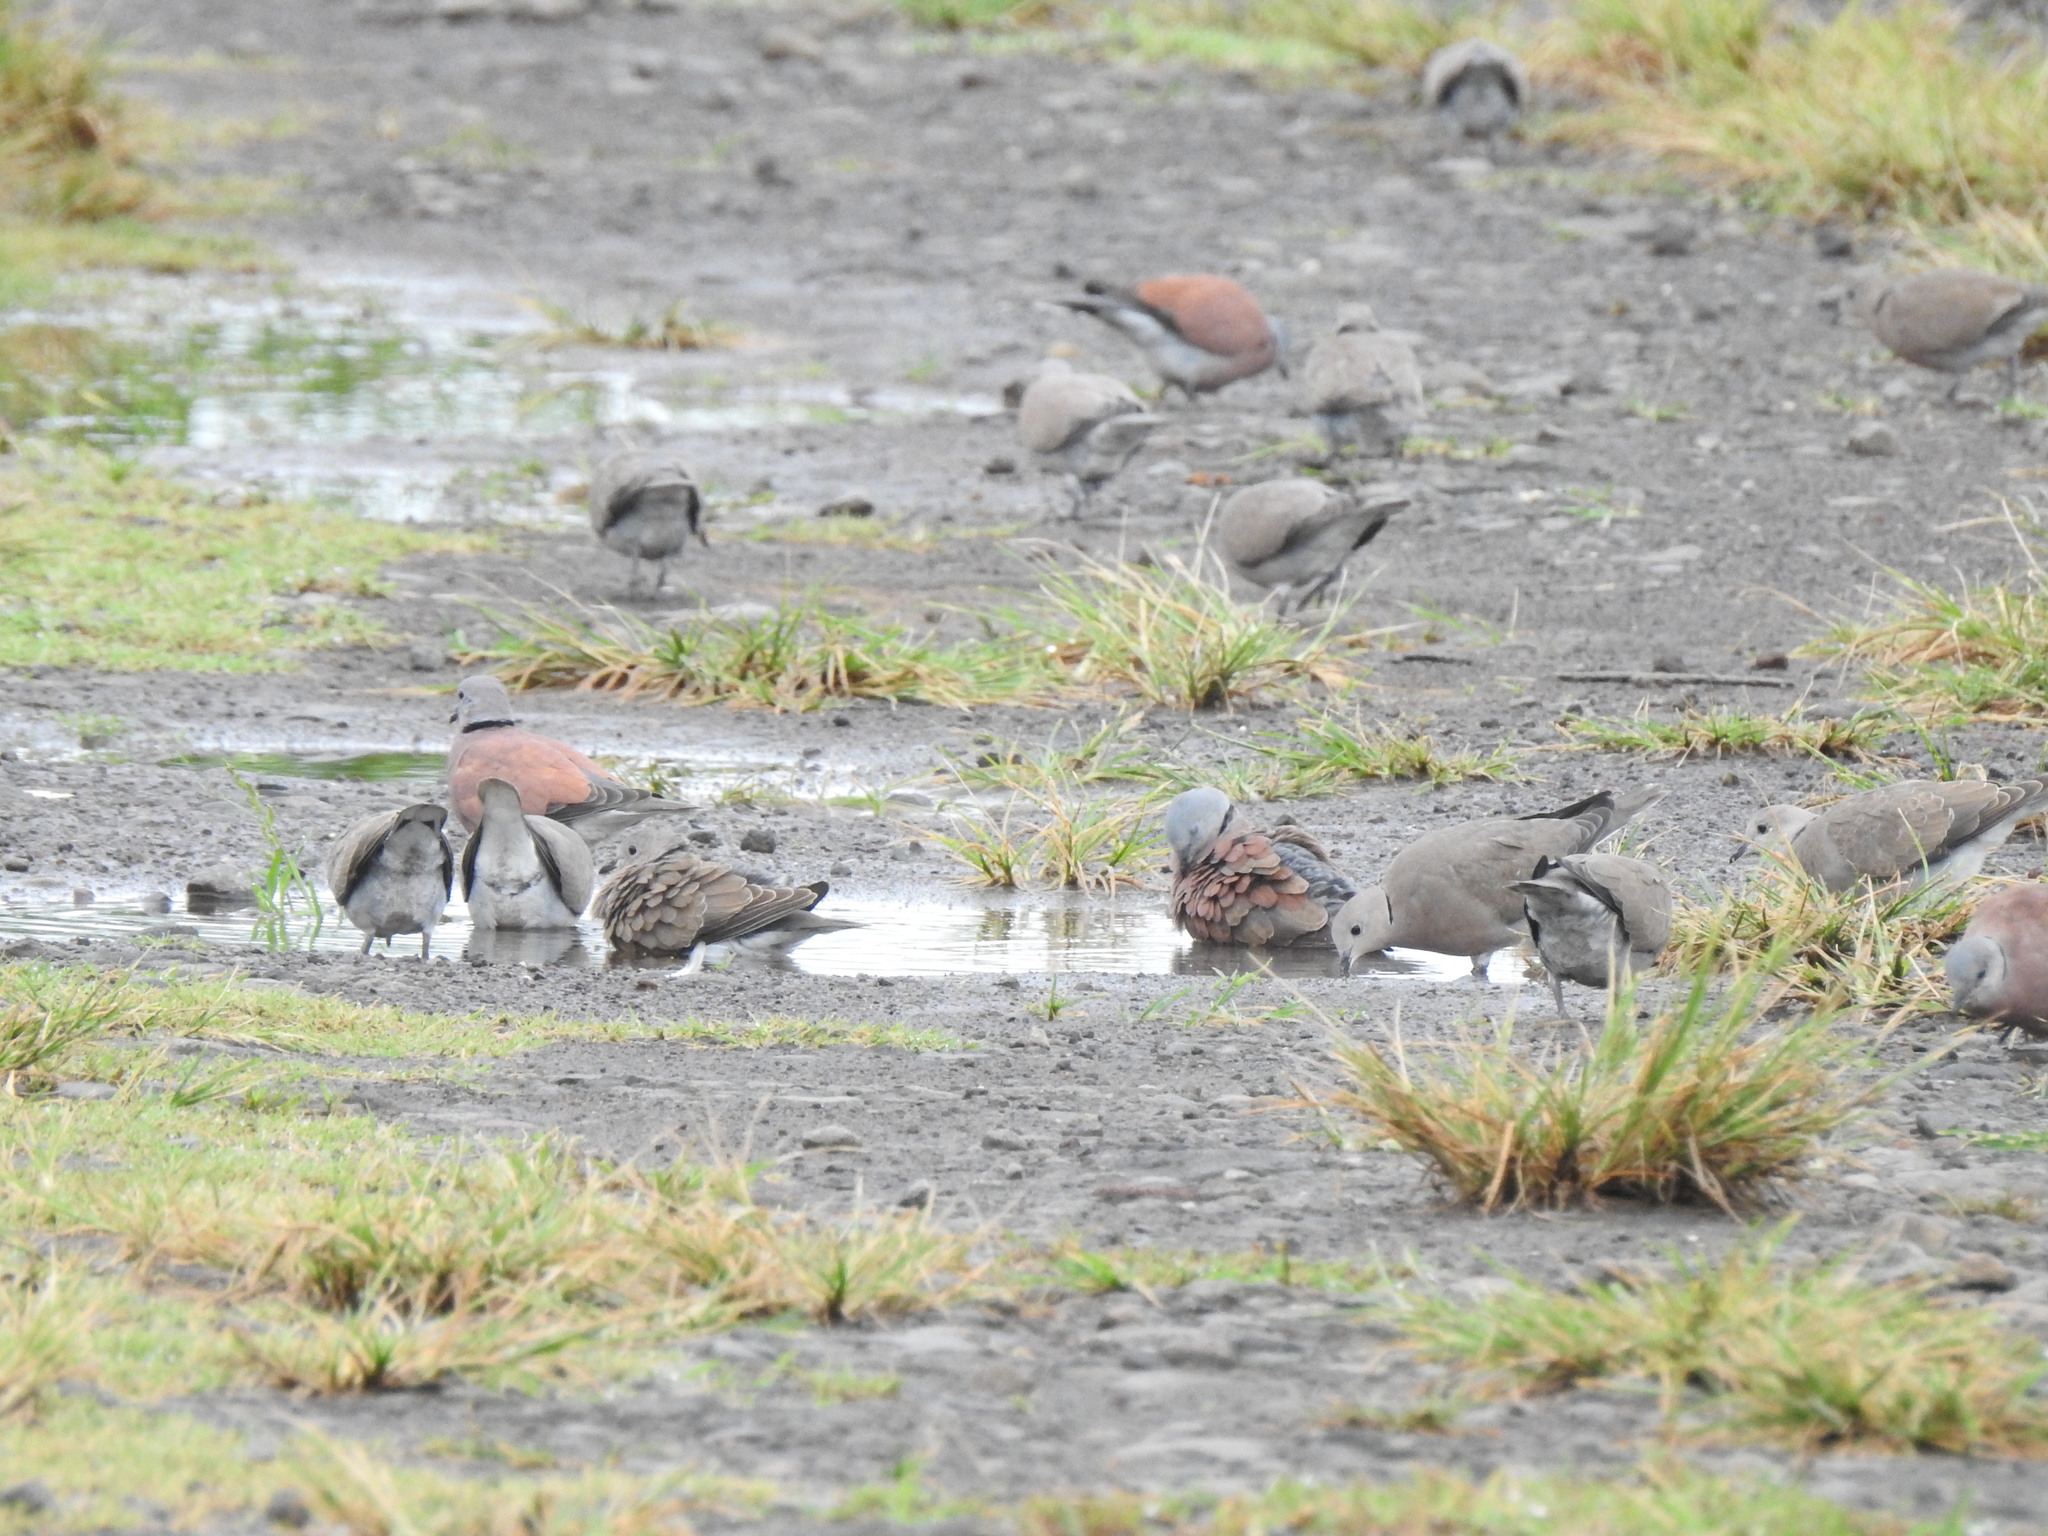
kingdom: Animalia
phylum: Chordata
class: Aves
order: Columbiformes
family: Columbidae
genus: Streptopelia
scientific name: Streptopelia tranquebarica
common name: Red turtle dove
